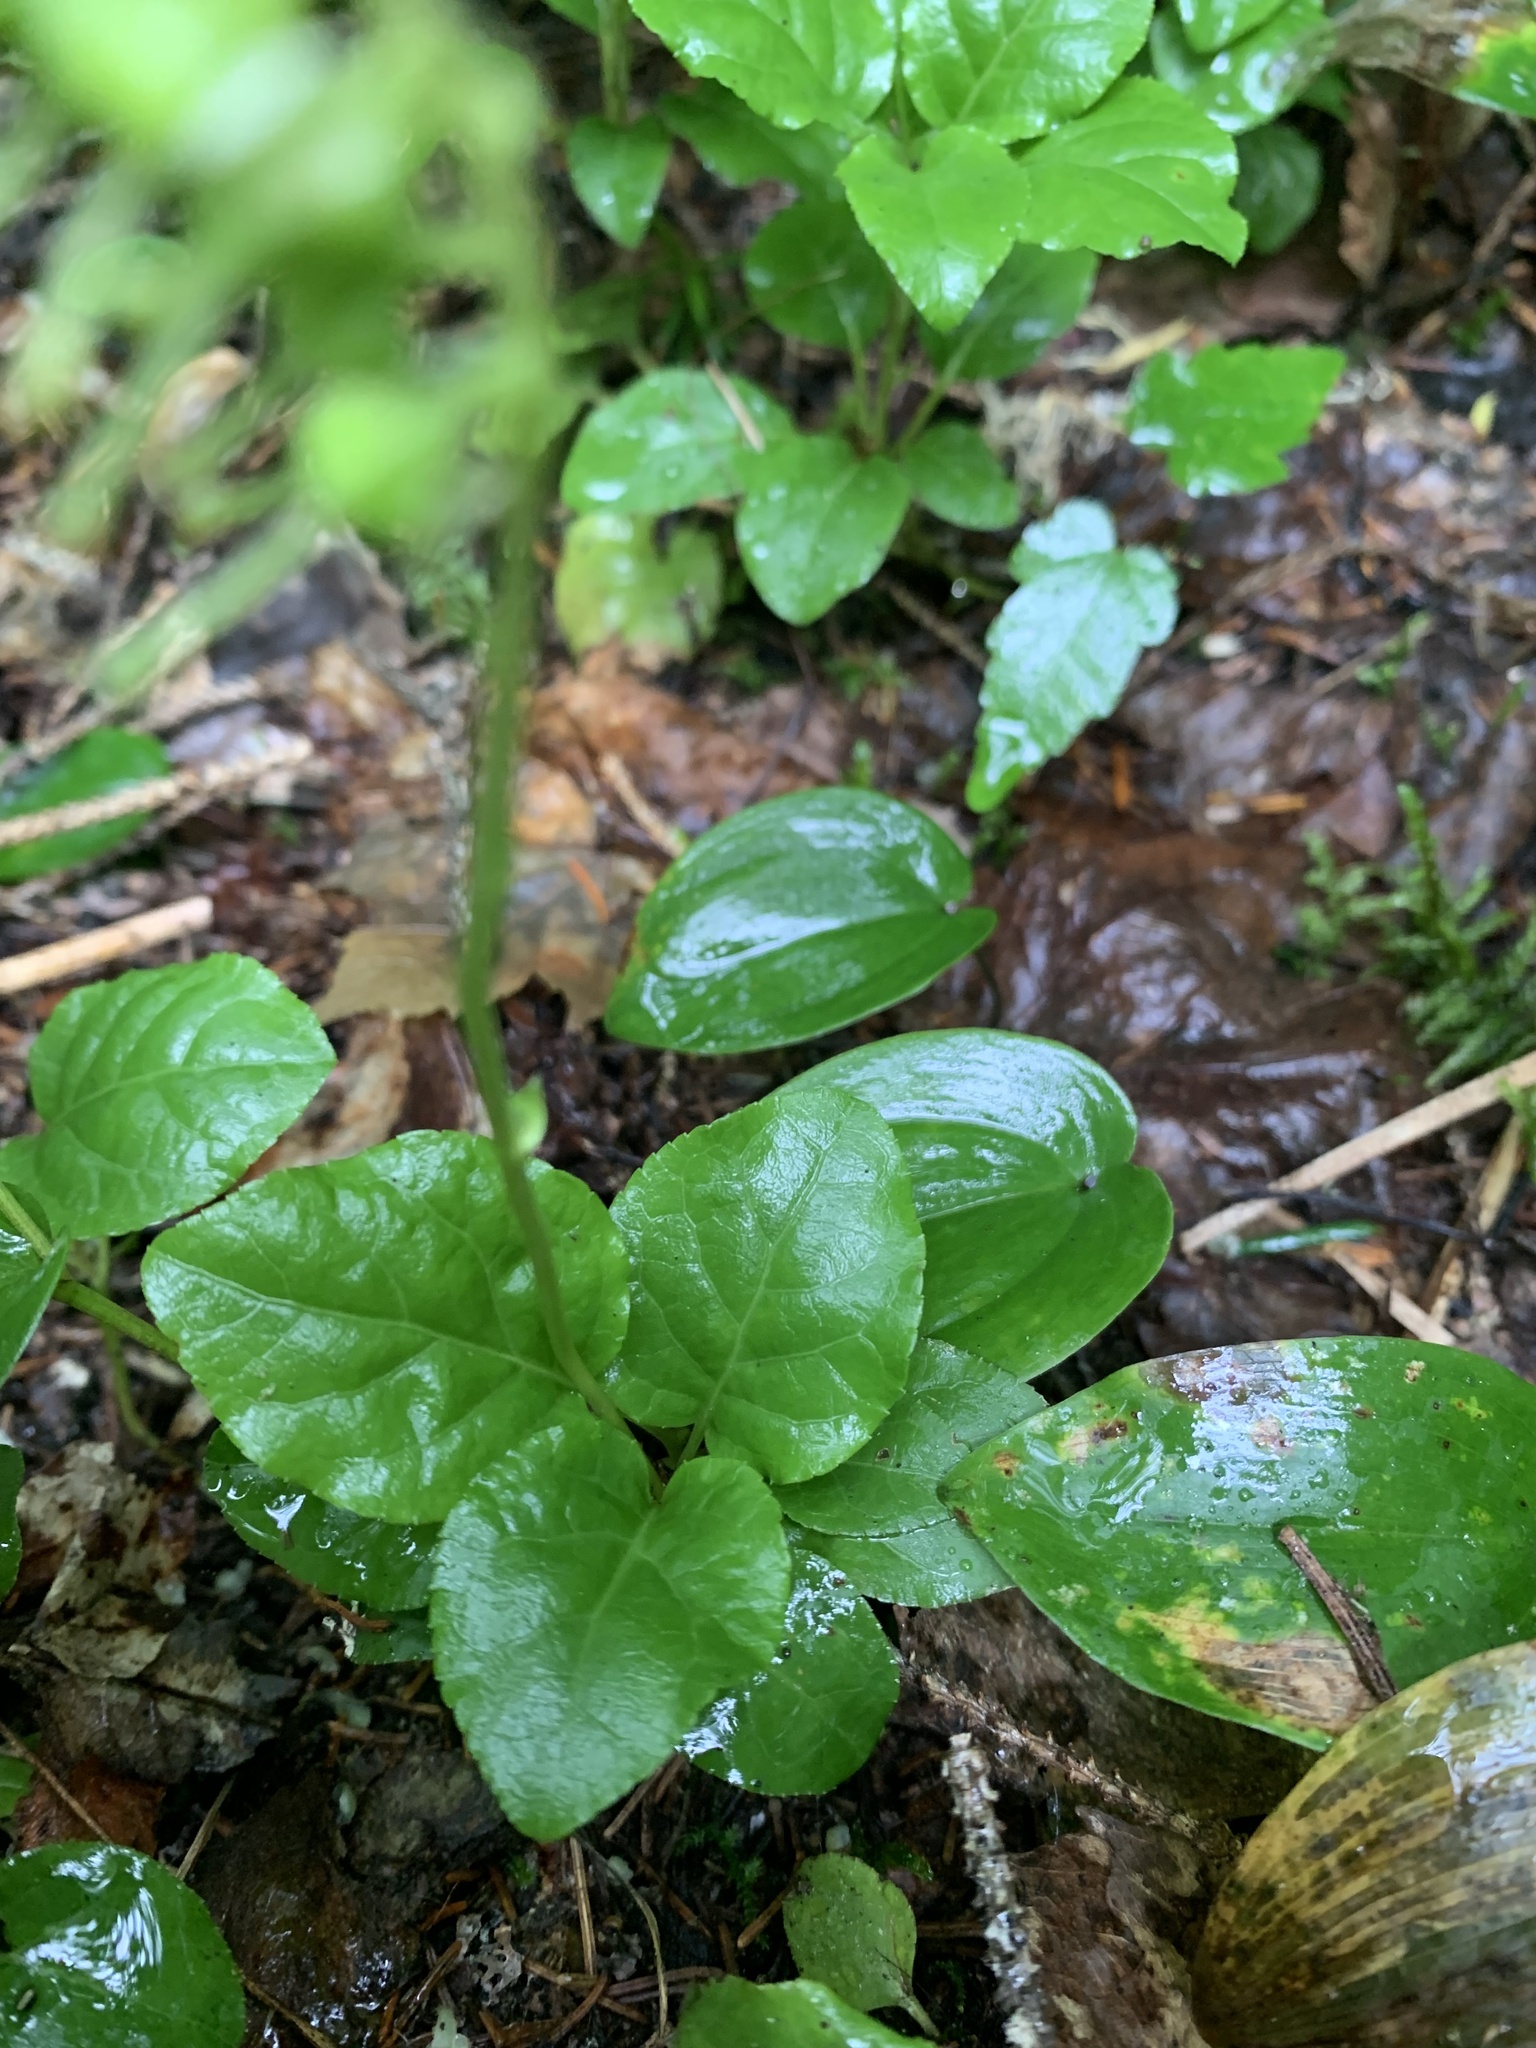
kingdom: Plantae
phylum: Tracheophyta
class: Magnoliopsida
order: Ericales
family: Ericaceae
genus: Orthilia
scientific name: Orthilia secunda
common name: One-sided orthilia
